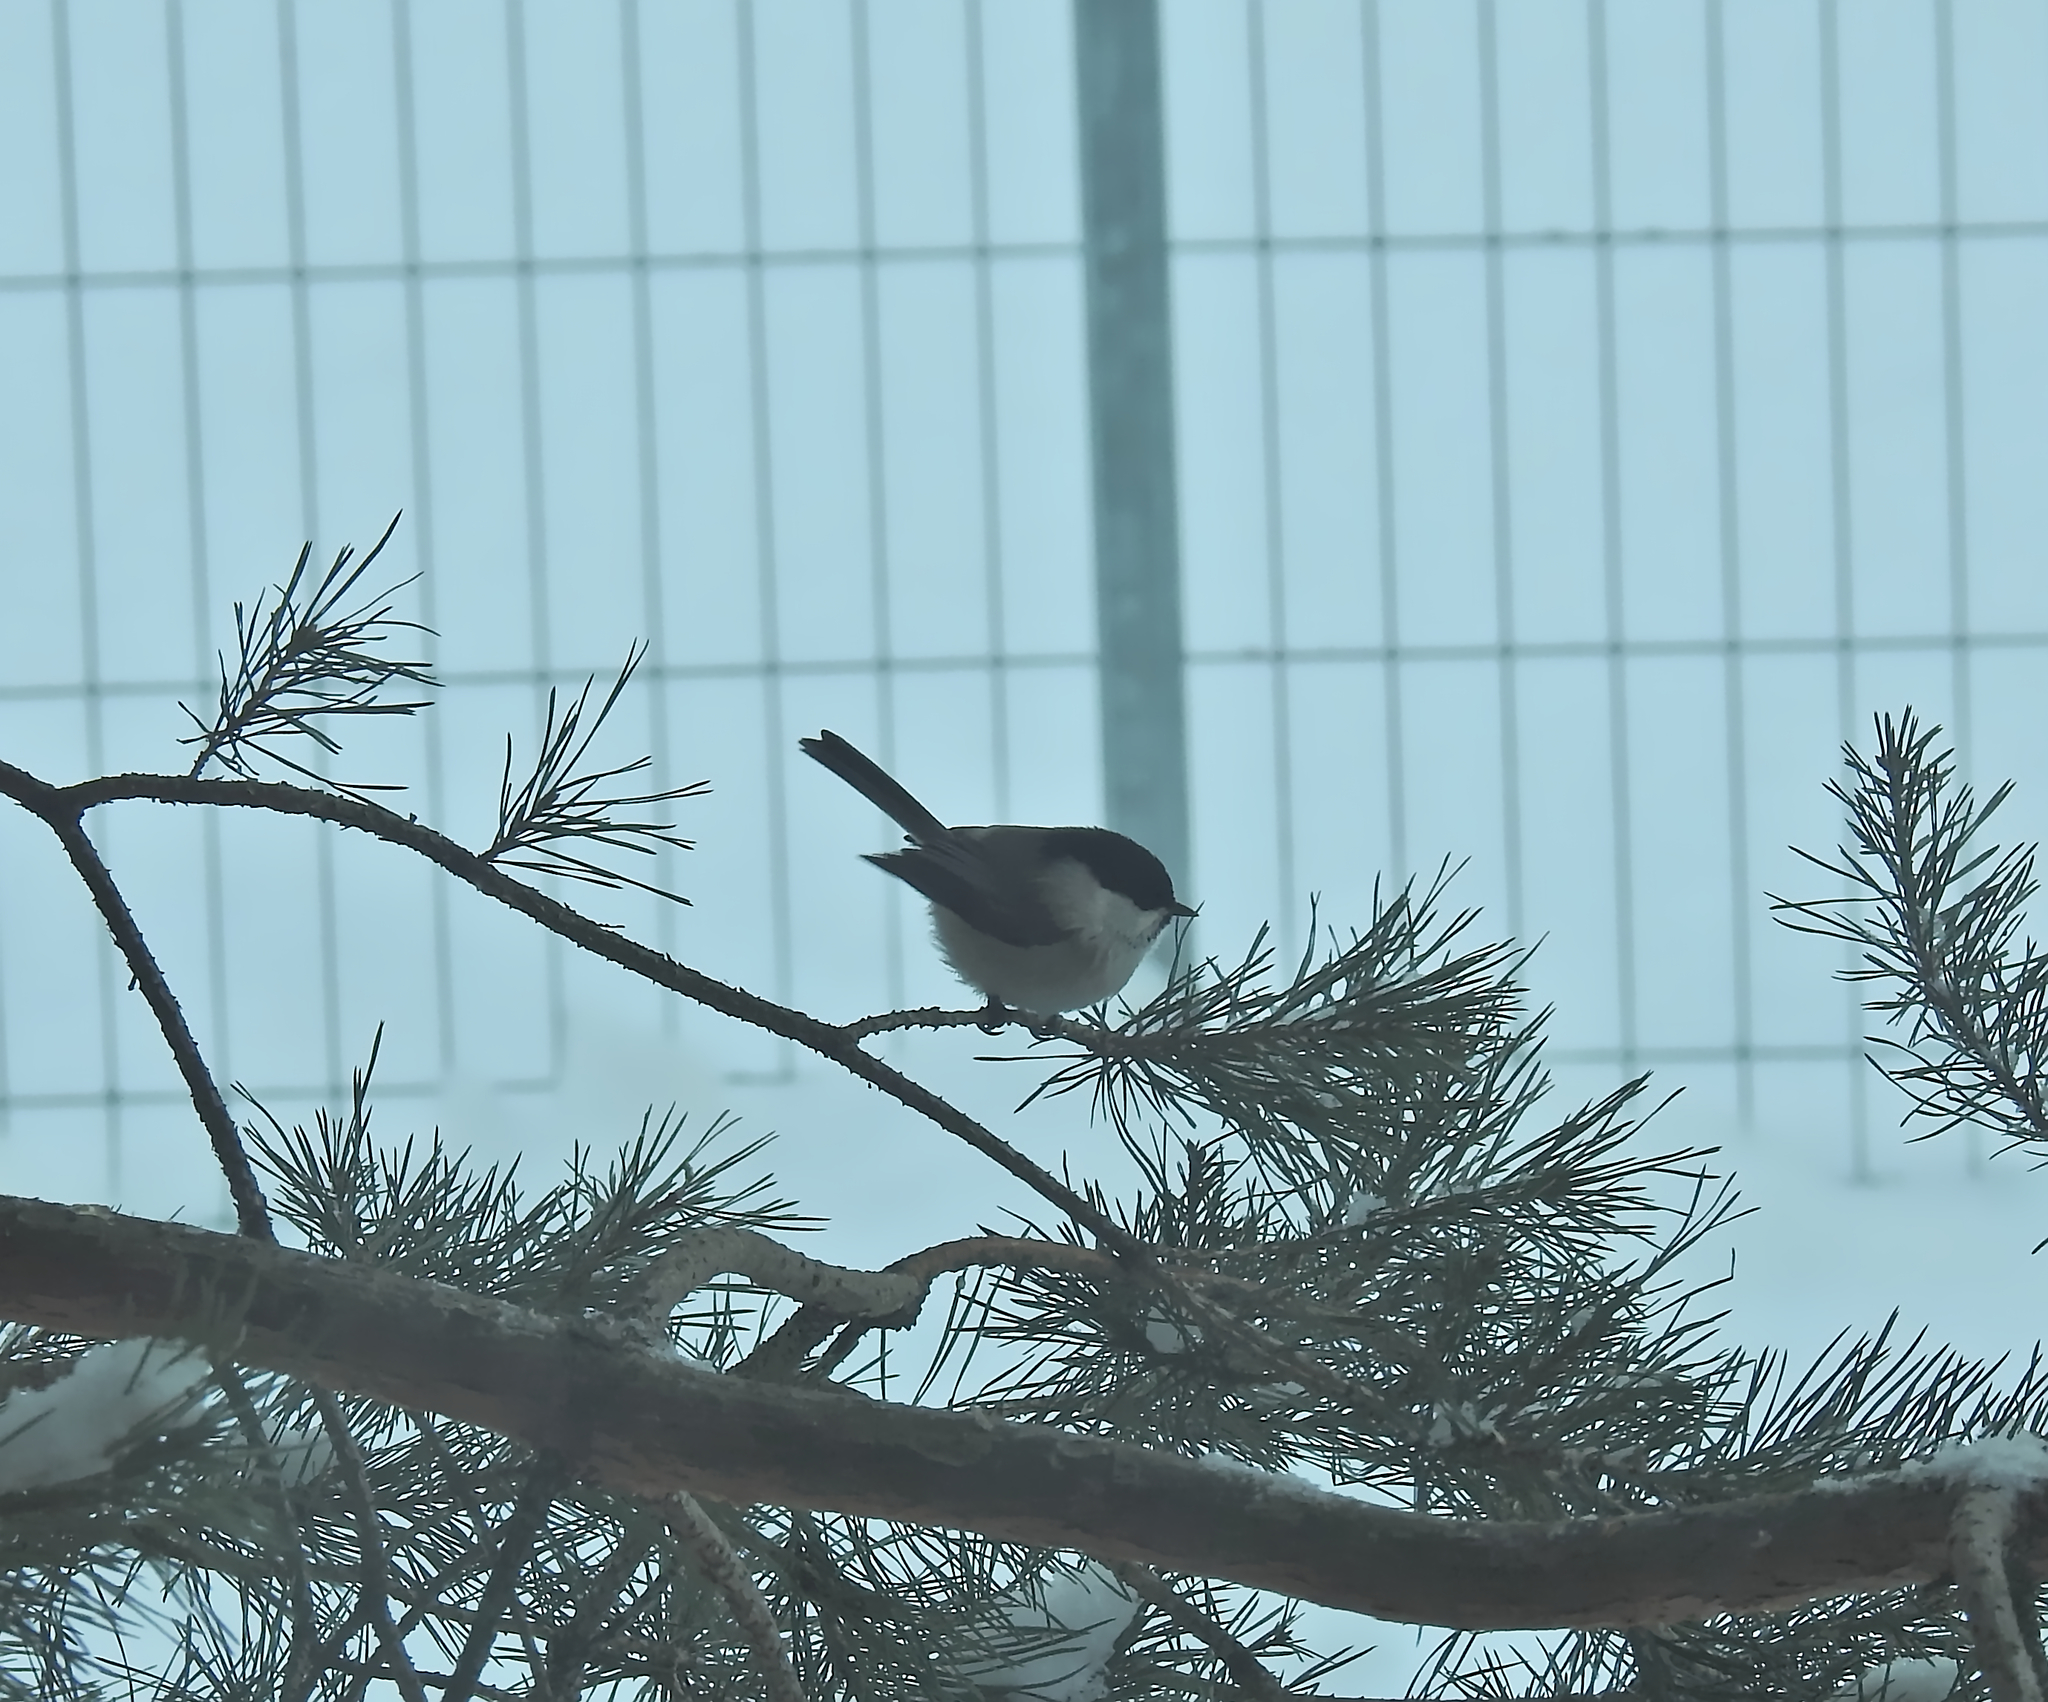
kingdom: Animalia
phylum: Chordata
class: Aves
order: Passeriformes
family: Paridae
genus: Poecile
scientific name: Poecile montanus
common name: Willow tit
